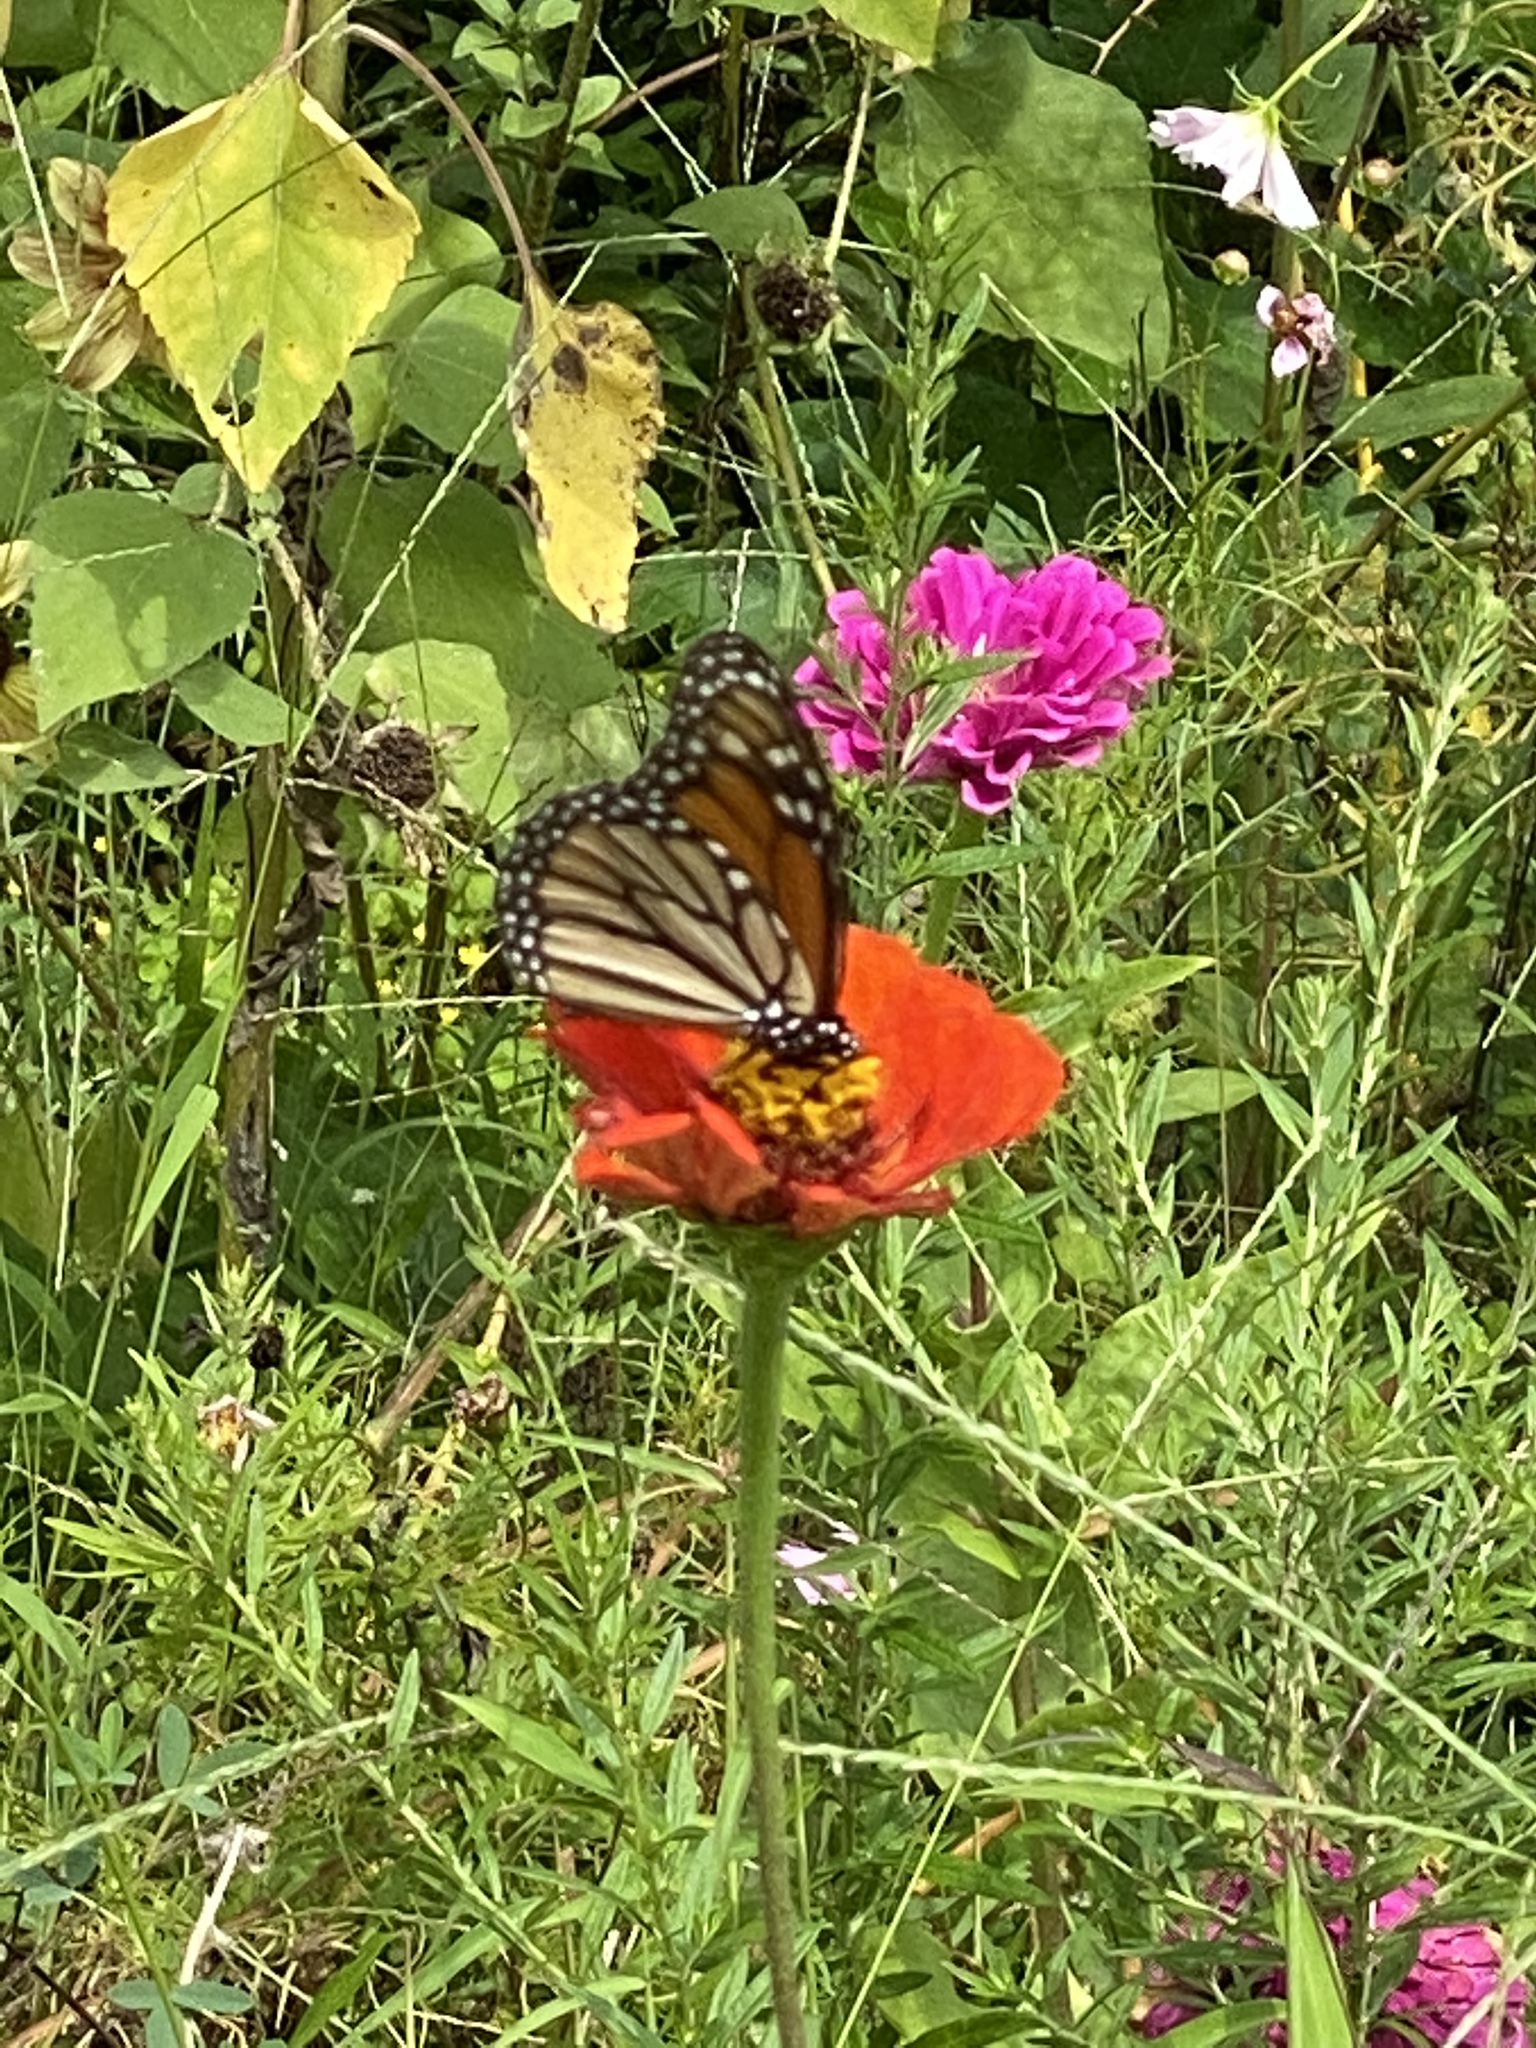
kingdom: Animalia
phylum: Arthropoda
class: Insecta
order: Lepidoptera
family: Nymphalidae
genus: Danaus
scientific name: Danaus plexippus
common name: Monarch
